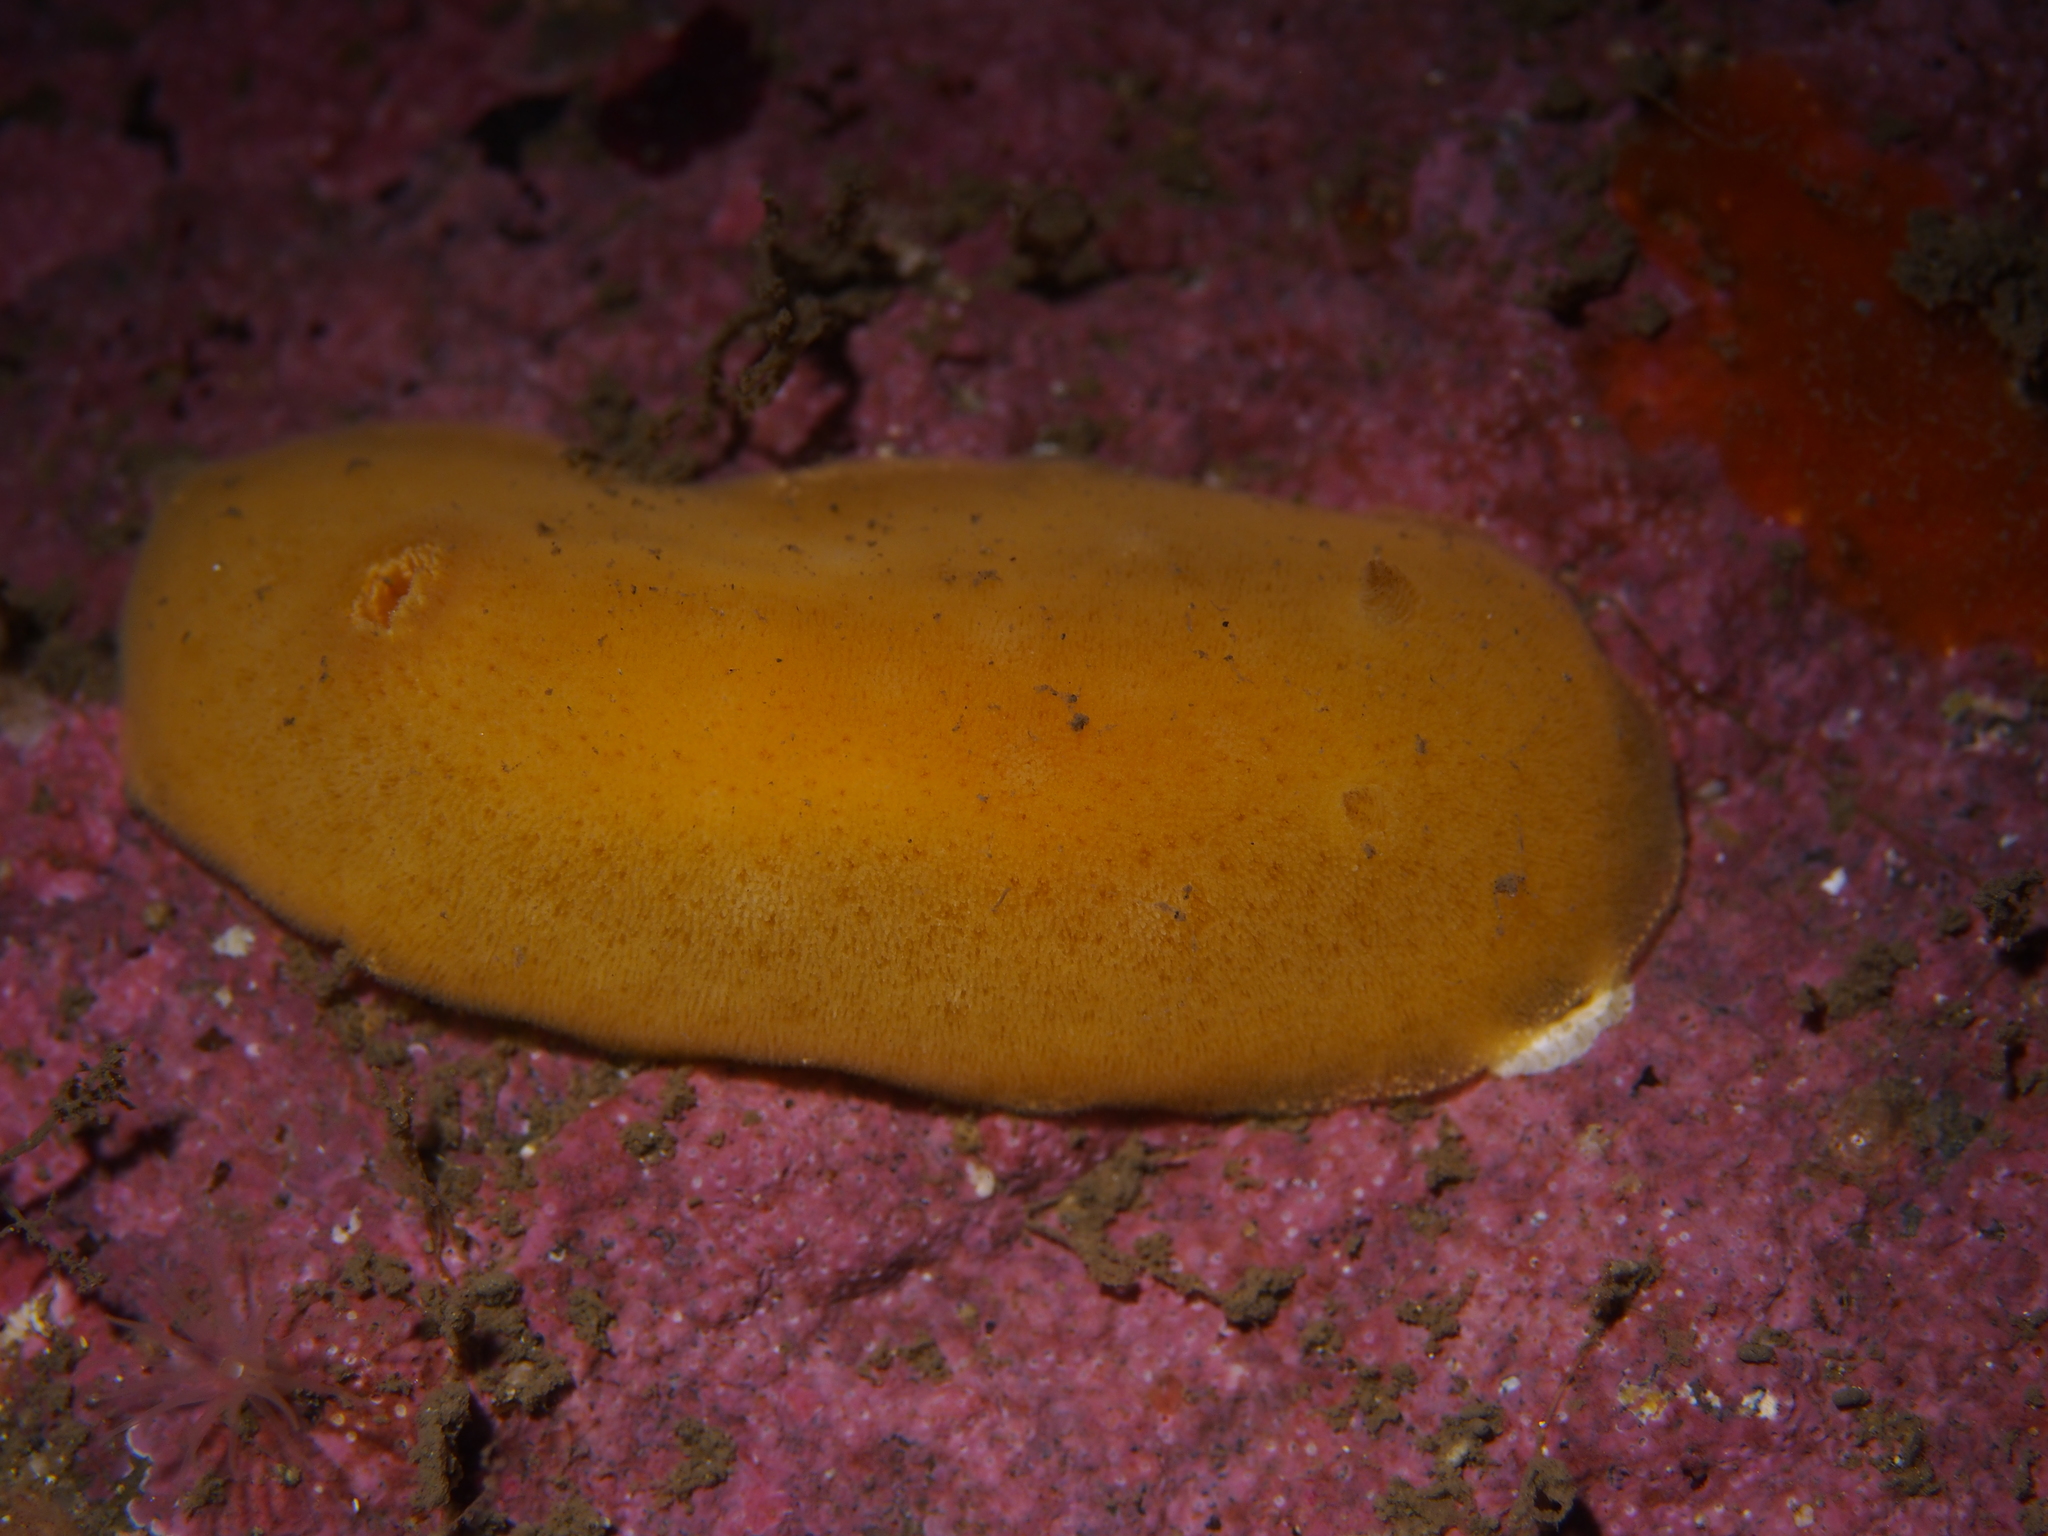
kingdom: Animalia
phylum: Mollusca
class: Gastropoda
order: Nudibranchia
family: Discodorididae
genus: Jorunna
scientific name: Jorunna tomentosa
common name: Grey sea slug
